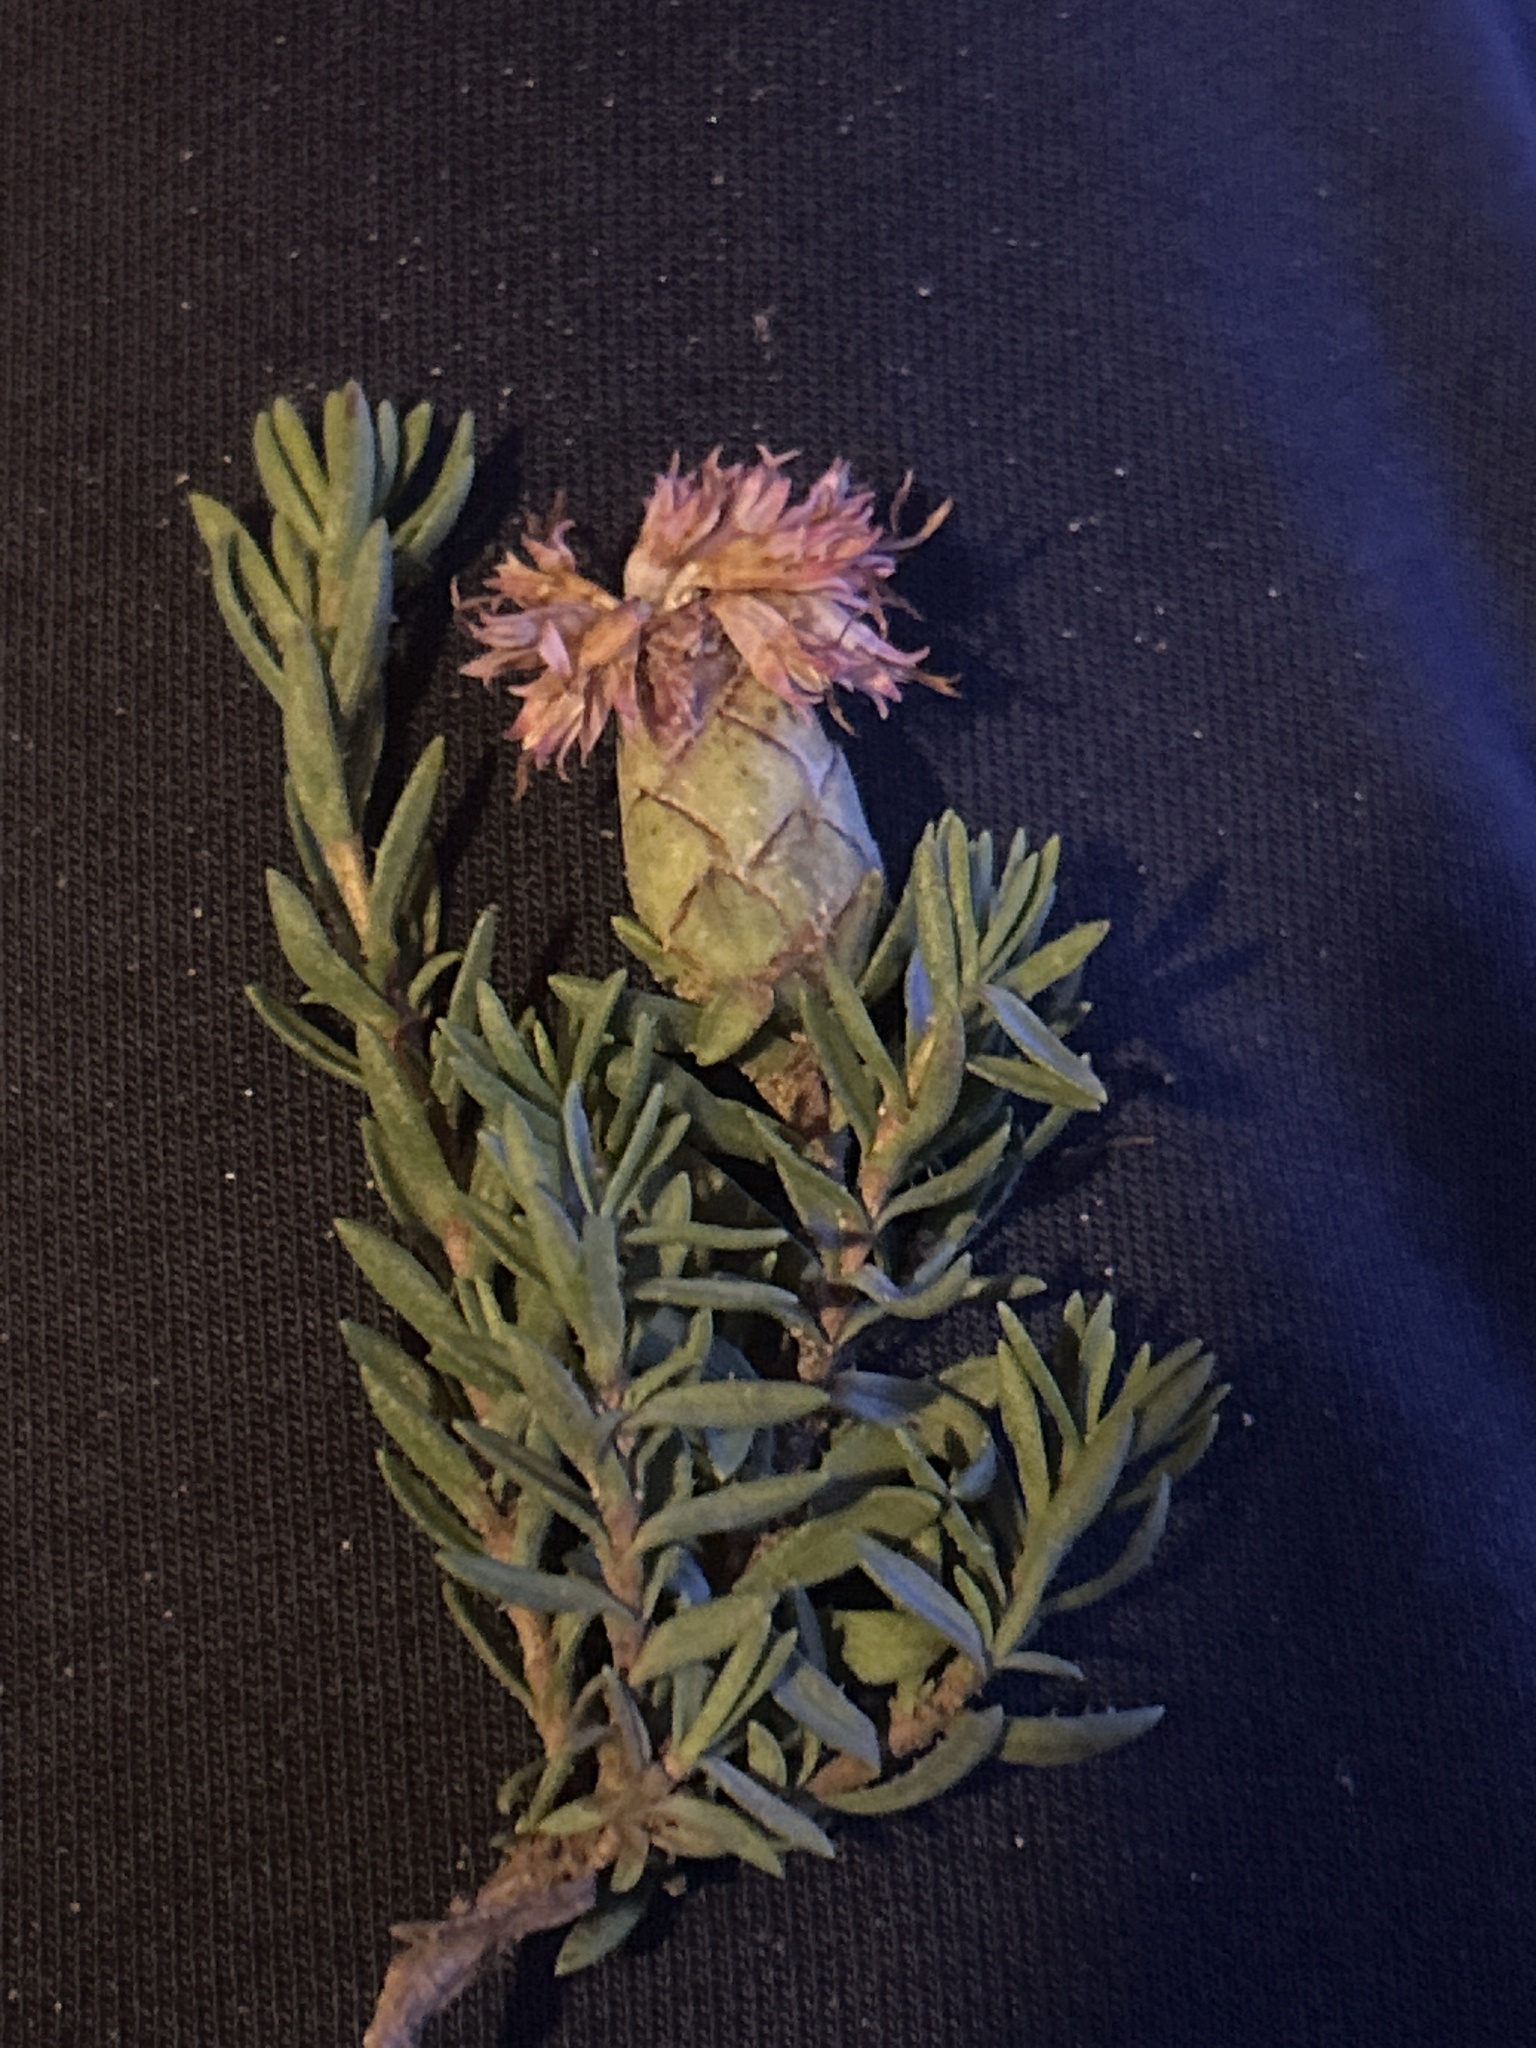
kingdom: Plantae
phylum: Tracheophyta
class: Magnoliopsida
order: Asterales
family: Asteraceae
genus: Pteronia
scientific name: Pteronia hirsuta
